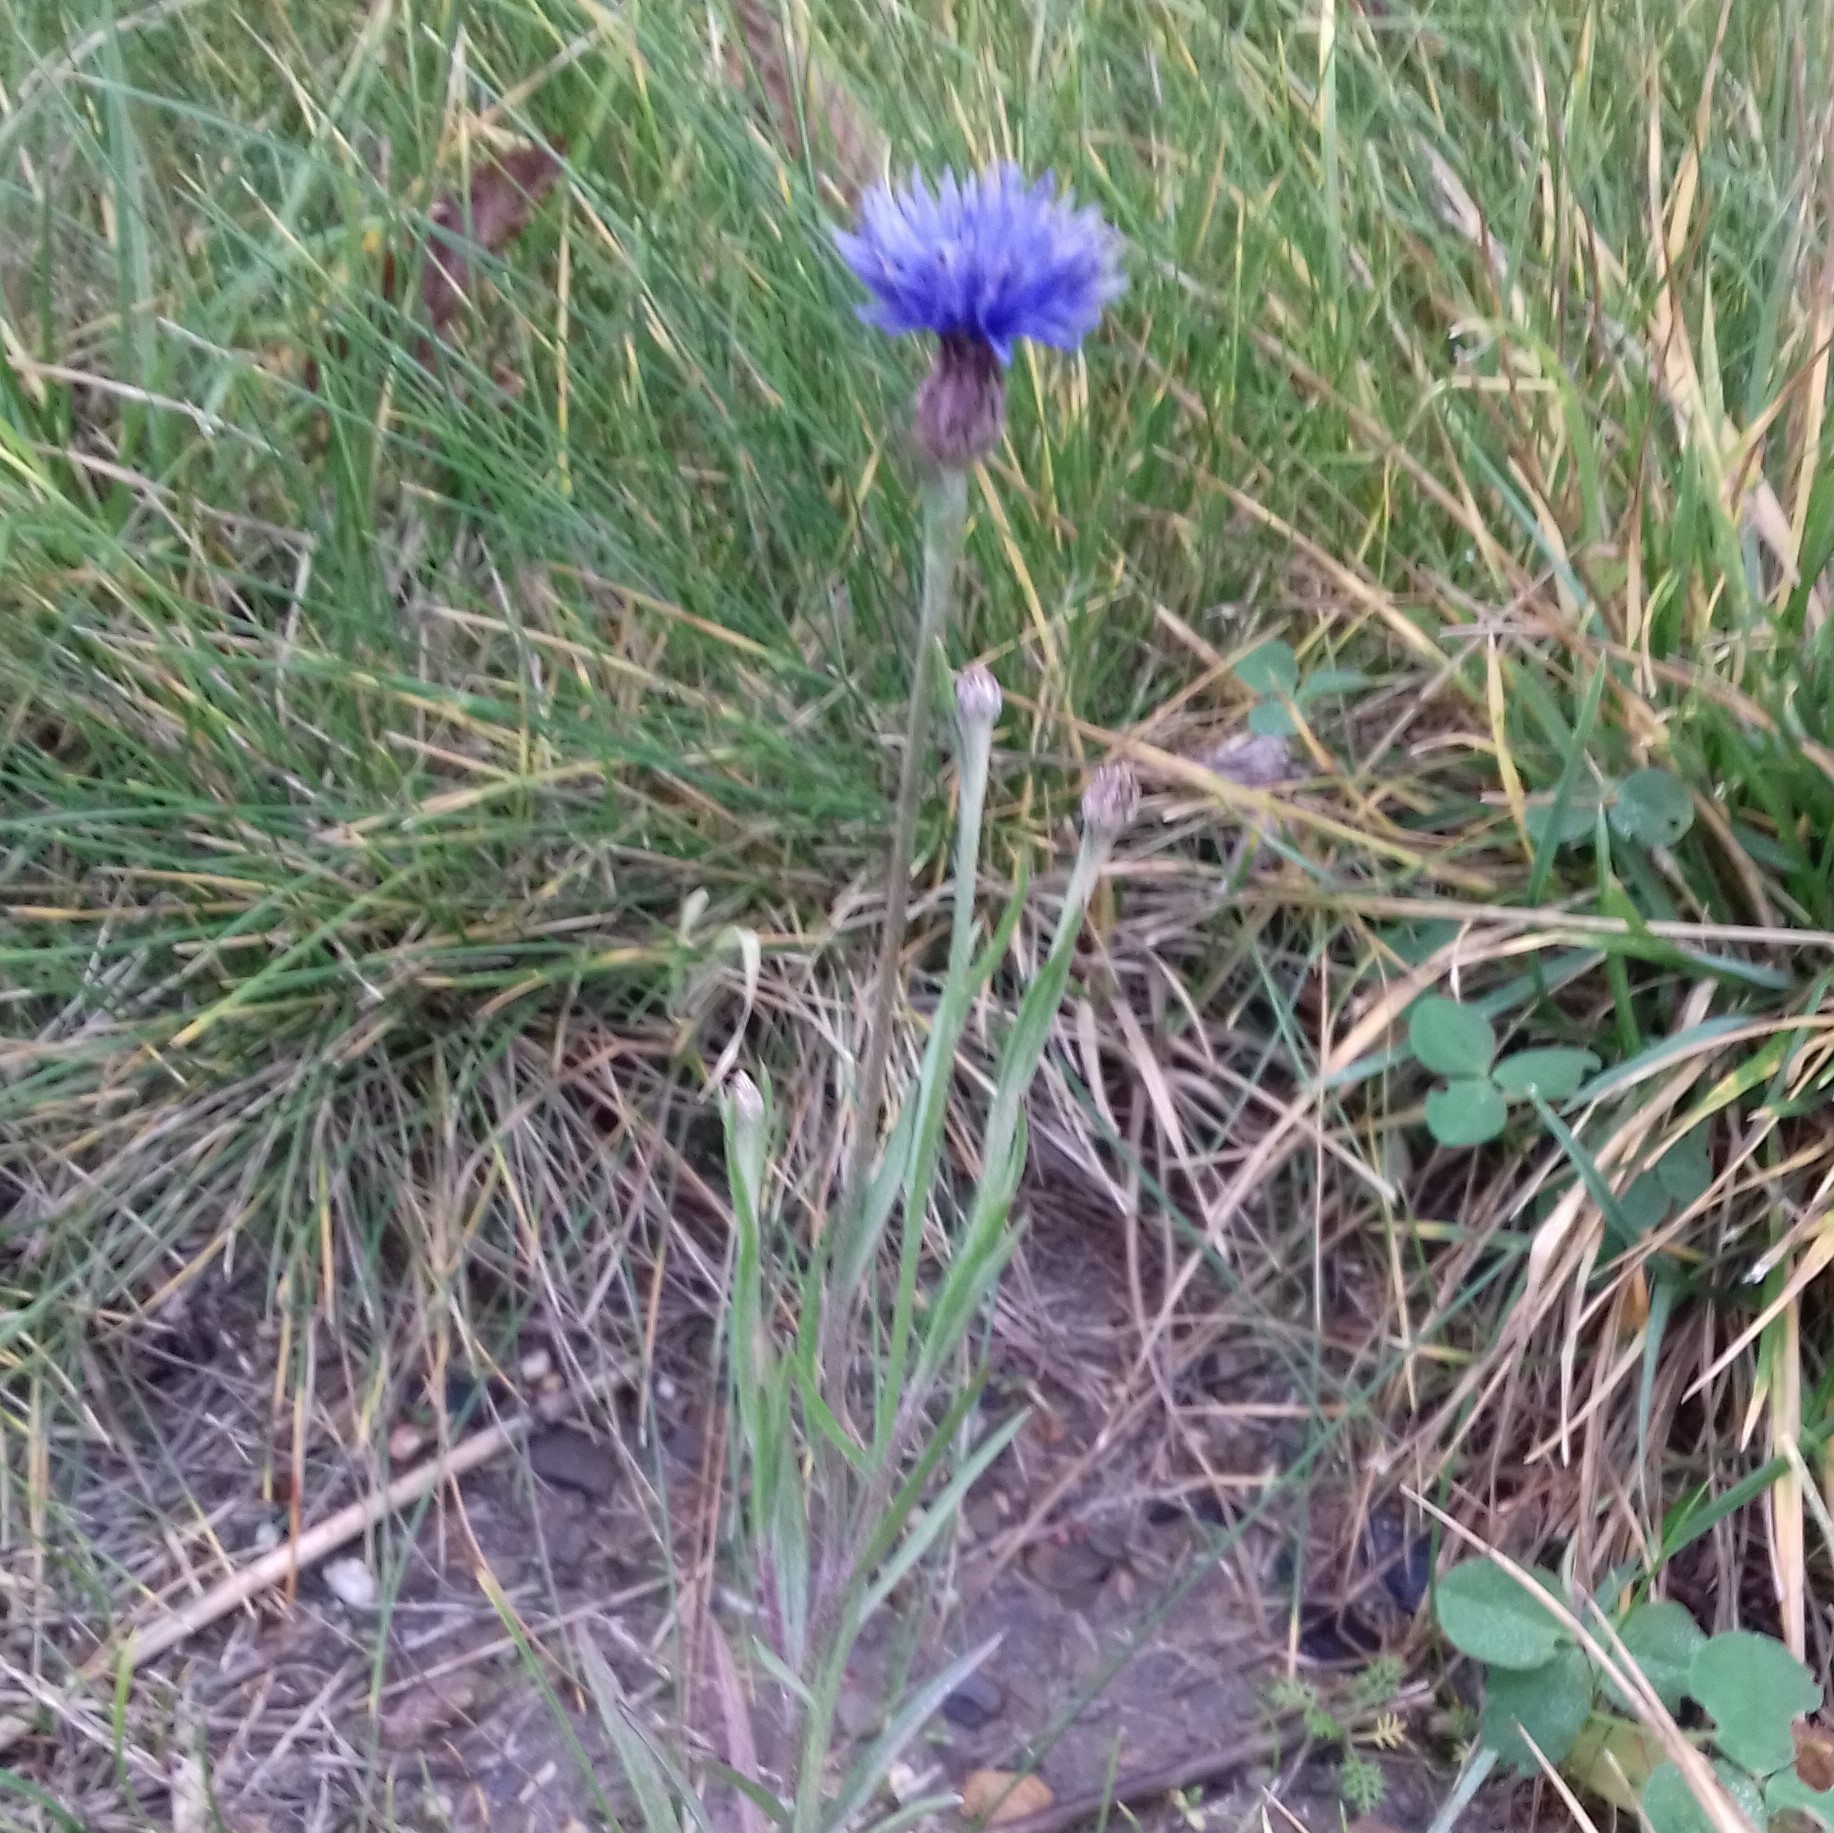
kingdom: Plantae
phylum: Tracheophyta
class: Magnoliopsida
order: Asterales
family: Asteraceae
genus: Centaurea
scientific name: Centaurea cyanus
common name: Cornflower
